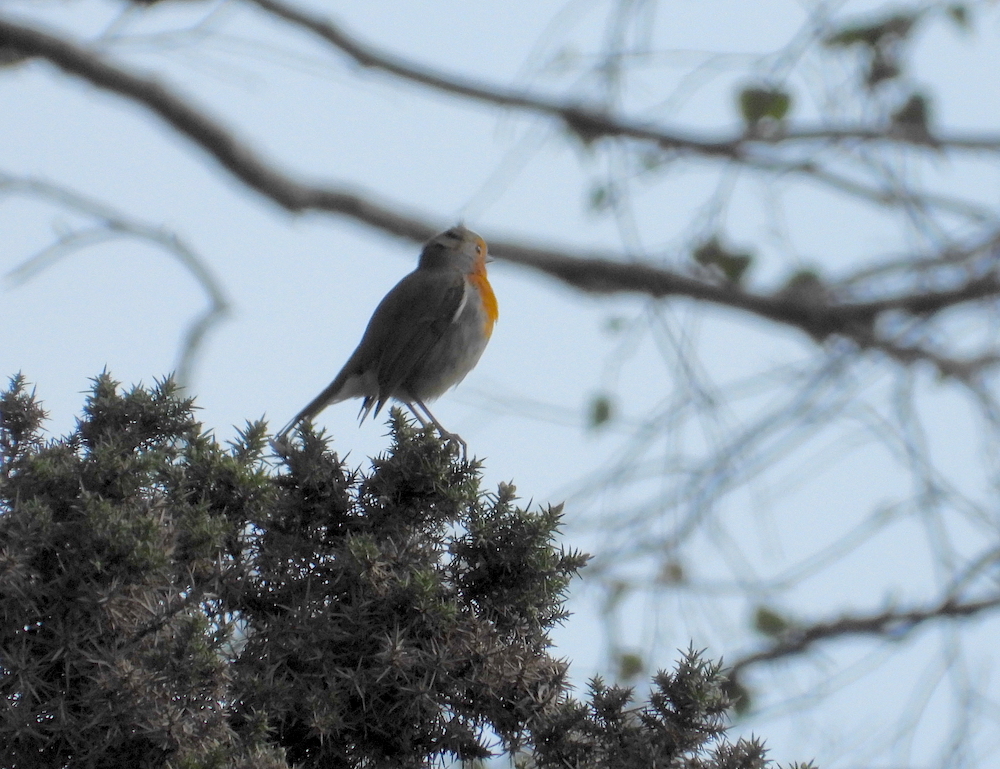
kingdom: Animalia
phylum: Chordata
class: Aves
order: Passeriformes
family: Muscicapidae
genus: Erithacus
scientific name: Erithacus rubecula
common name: European robin
